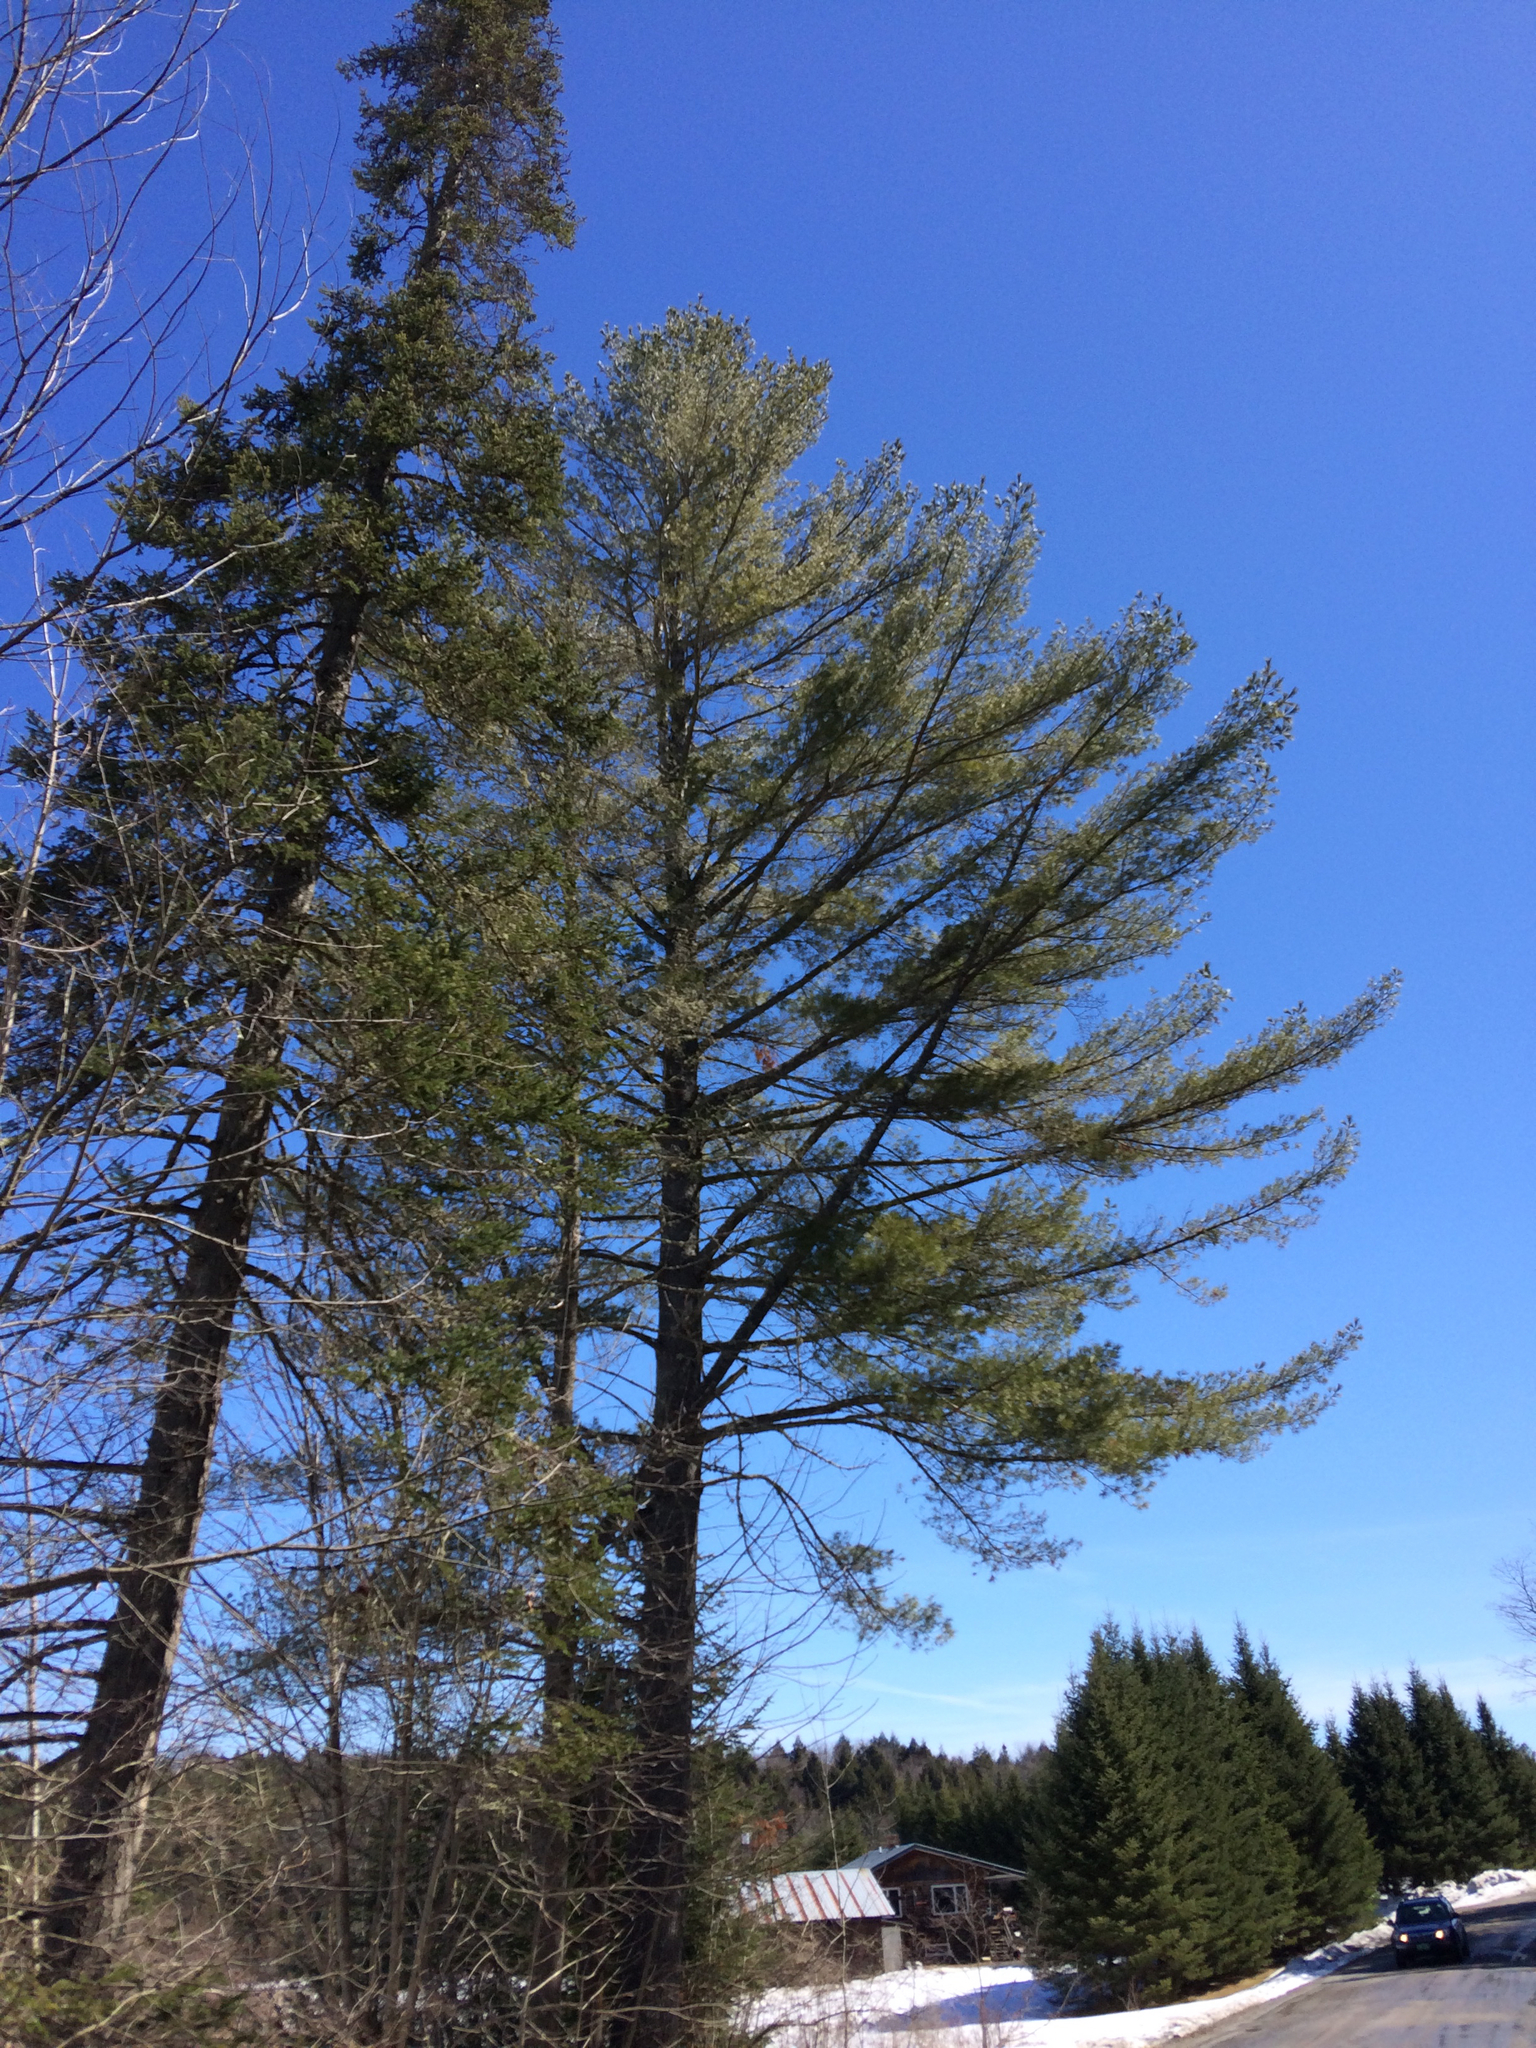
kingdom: Plantae
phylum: Tracheophyta
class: Pinopsida
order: Pinales
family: Pinaceae
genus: Pinus
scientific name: Pinus strobus
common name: Weymouth pine
